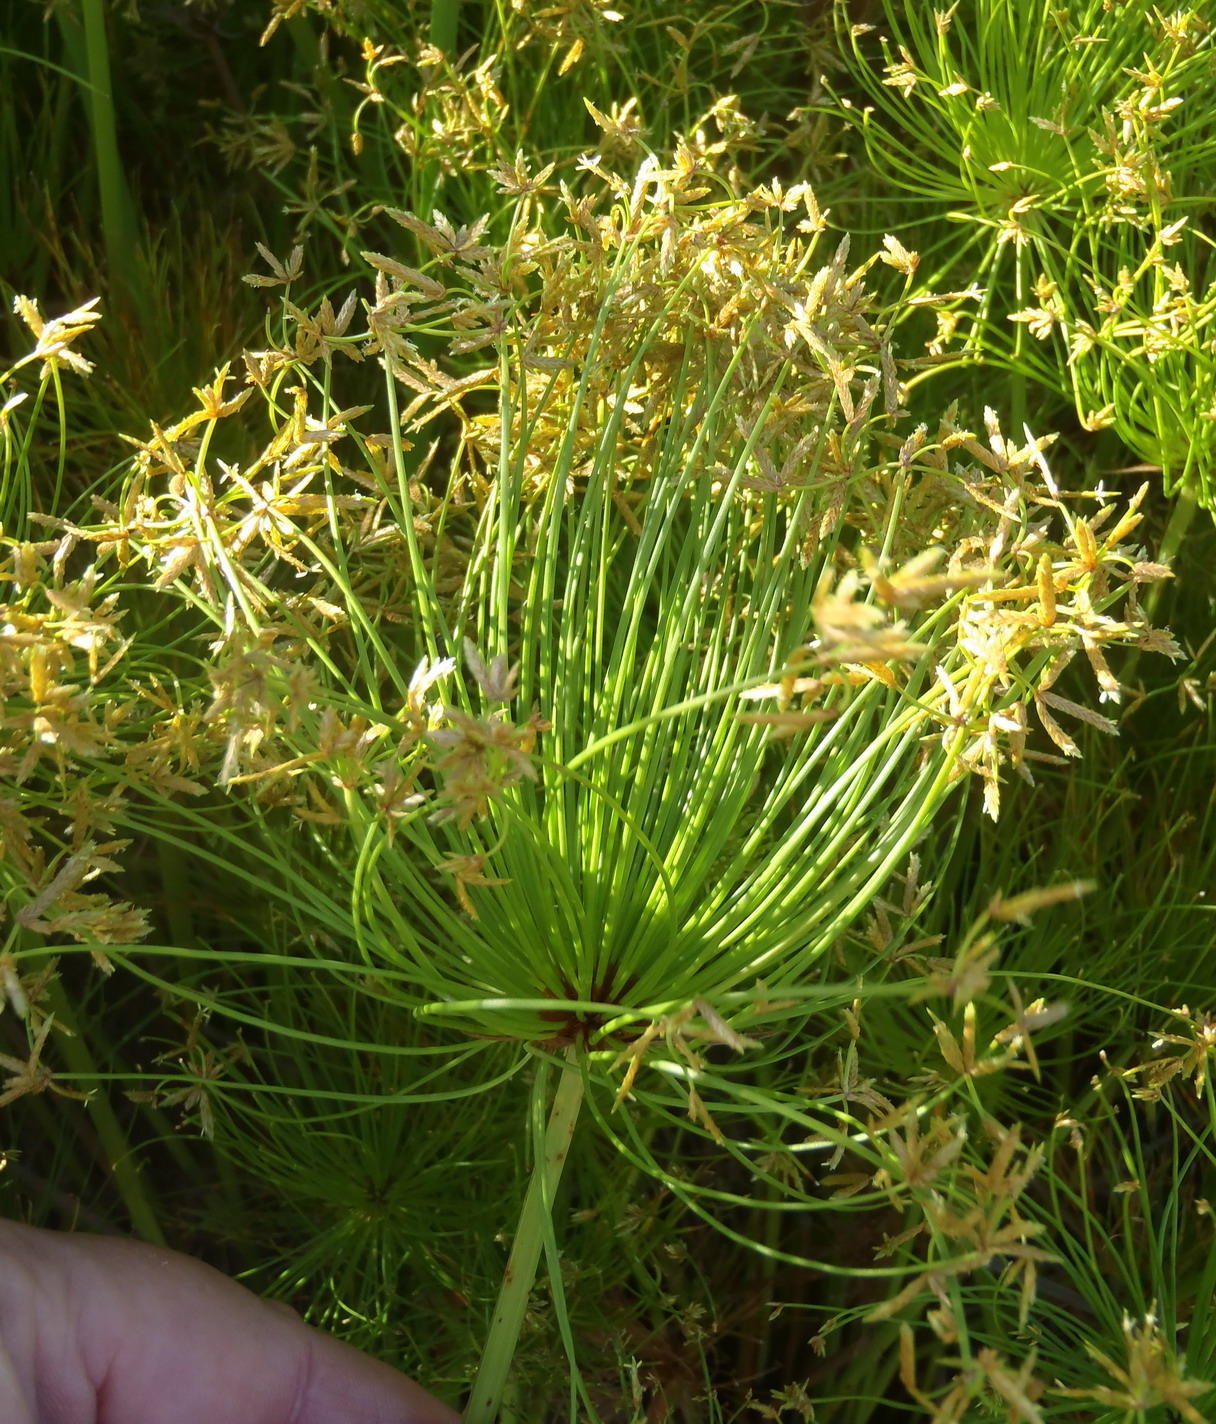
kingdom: Plantae
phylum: Tracheophyta
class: Liliopsida
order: Poales
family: Cyperaceae
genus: Cyperus
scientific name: Cyperus prolifer
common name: Miniature flatsedge
